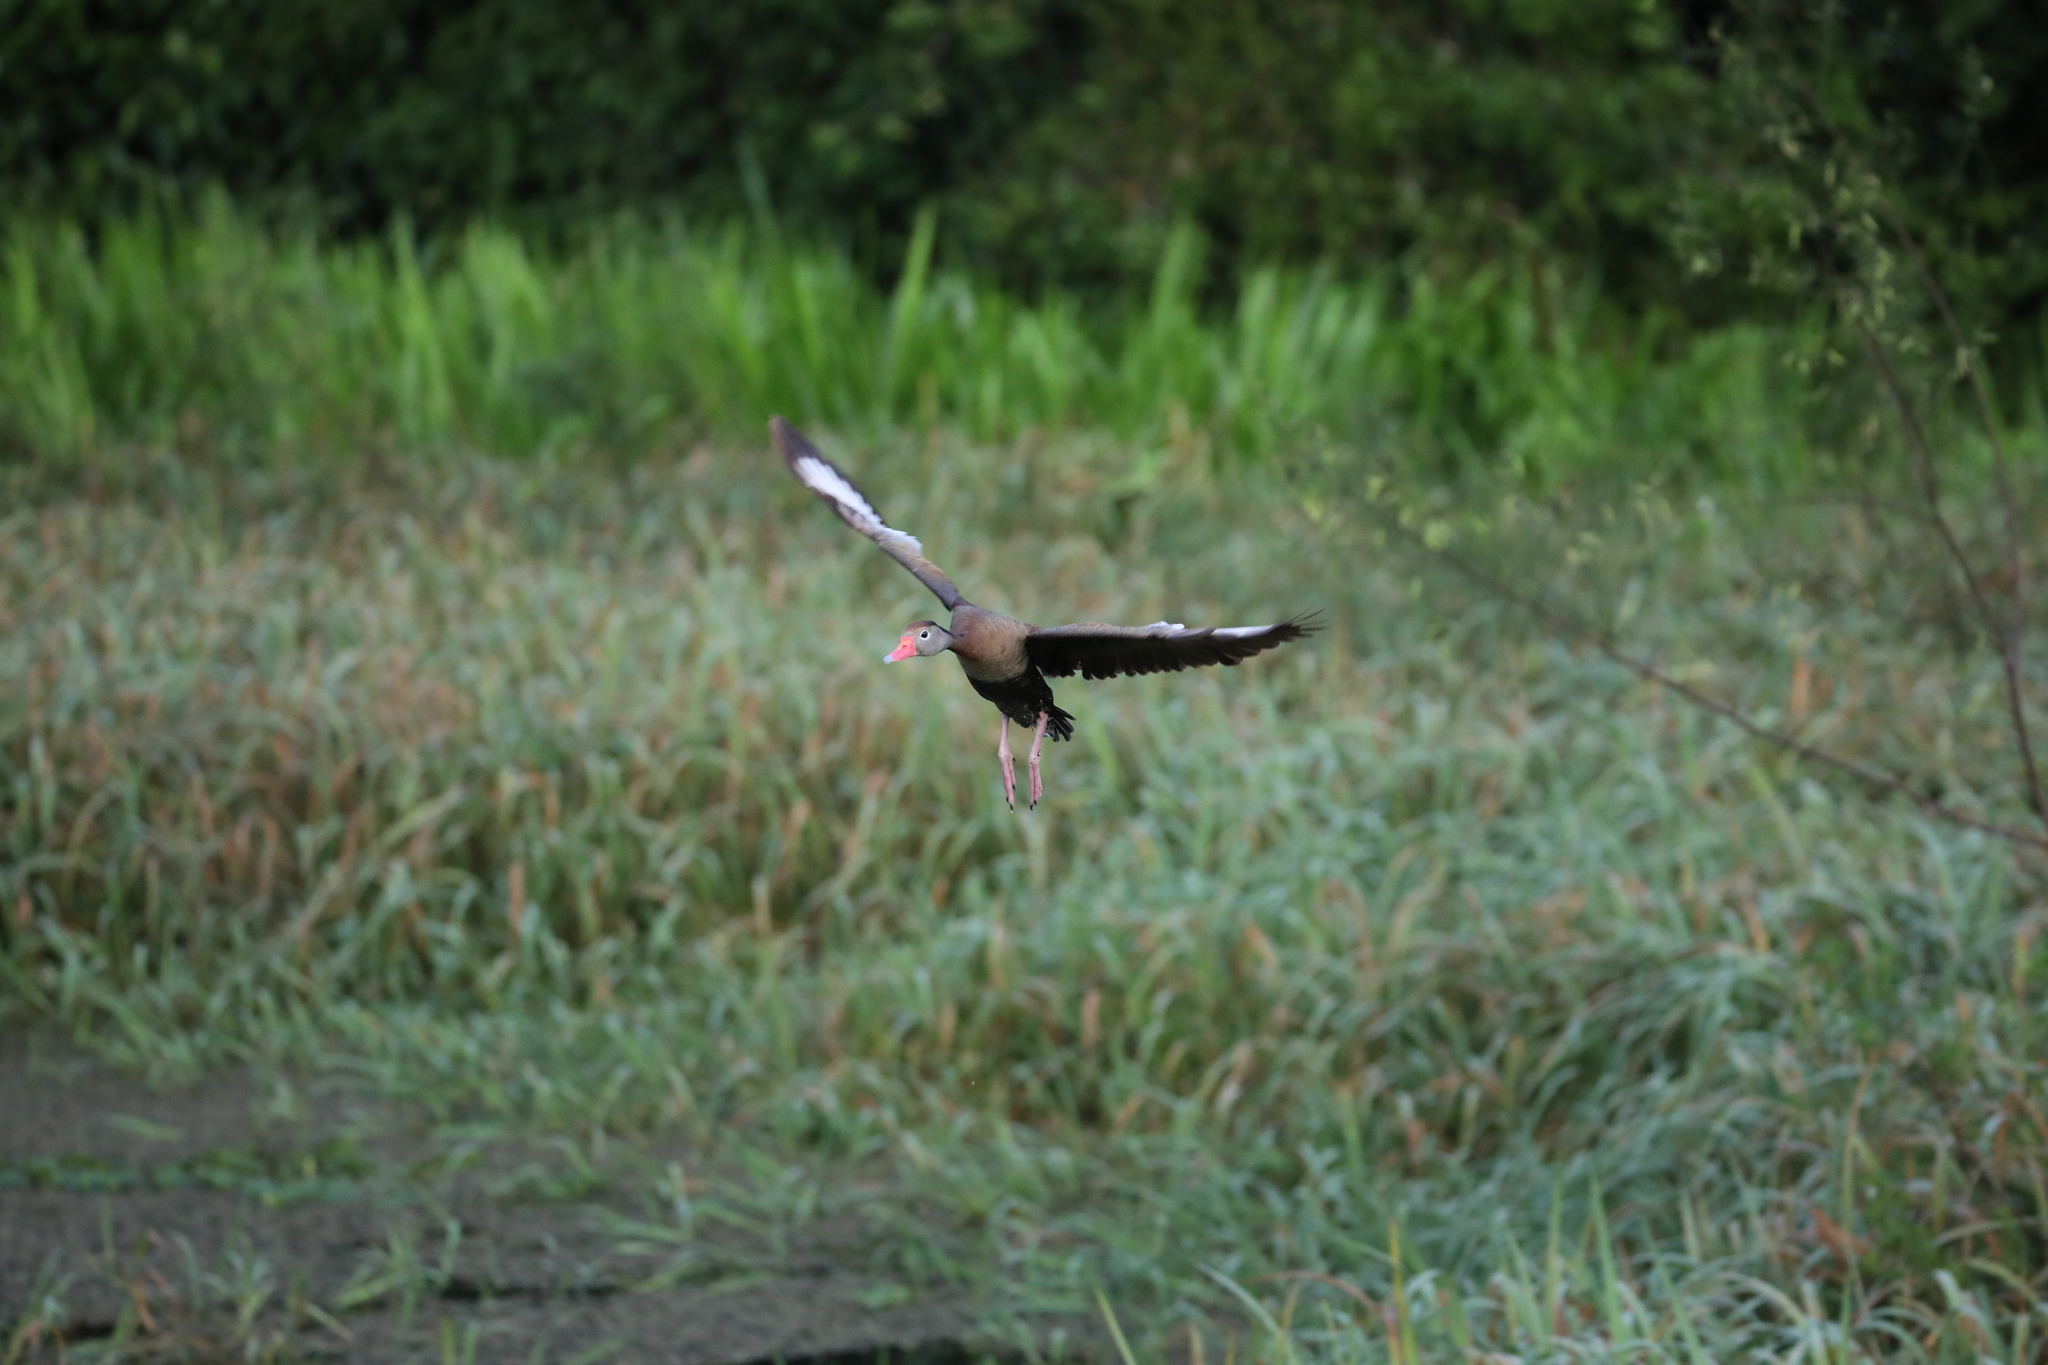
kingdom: Animalia
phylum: Chordata
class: Aves
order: Anseriformes
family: Anatidae
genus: Dendrocygna
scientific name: Dendrocygna autumnalis
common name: Black-bellied whistling duck
